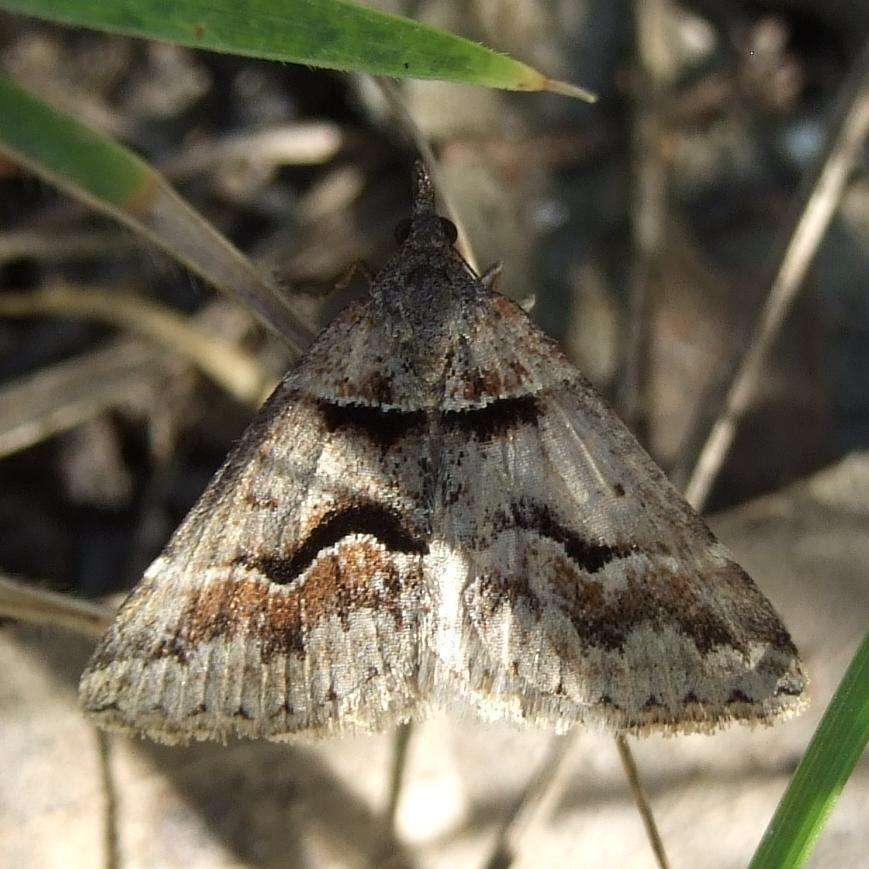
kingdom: Animalia
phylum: Arthropoda
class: Insecta
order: Lepidoptera
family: Geometridae
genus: Dichromodes
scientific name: Dichromodes atrosignata
